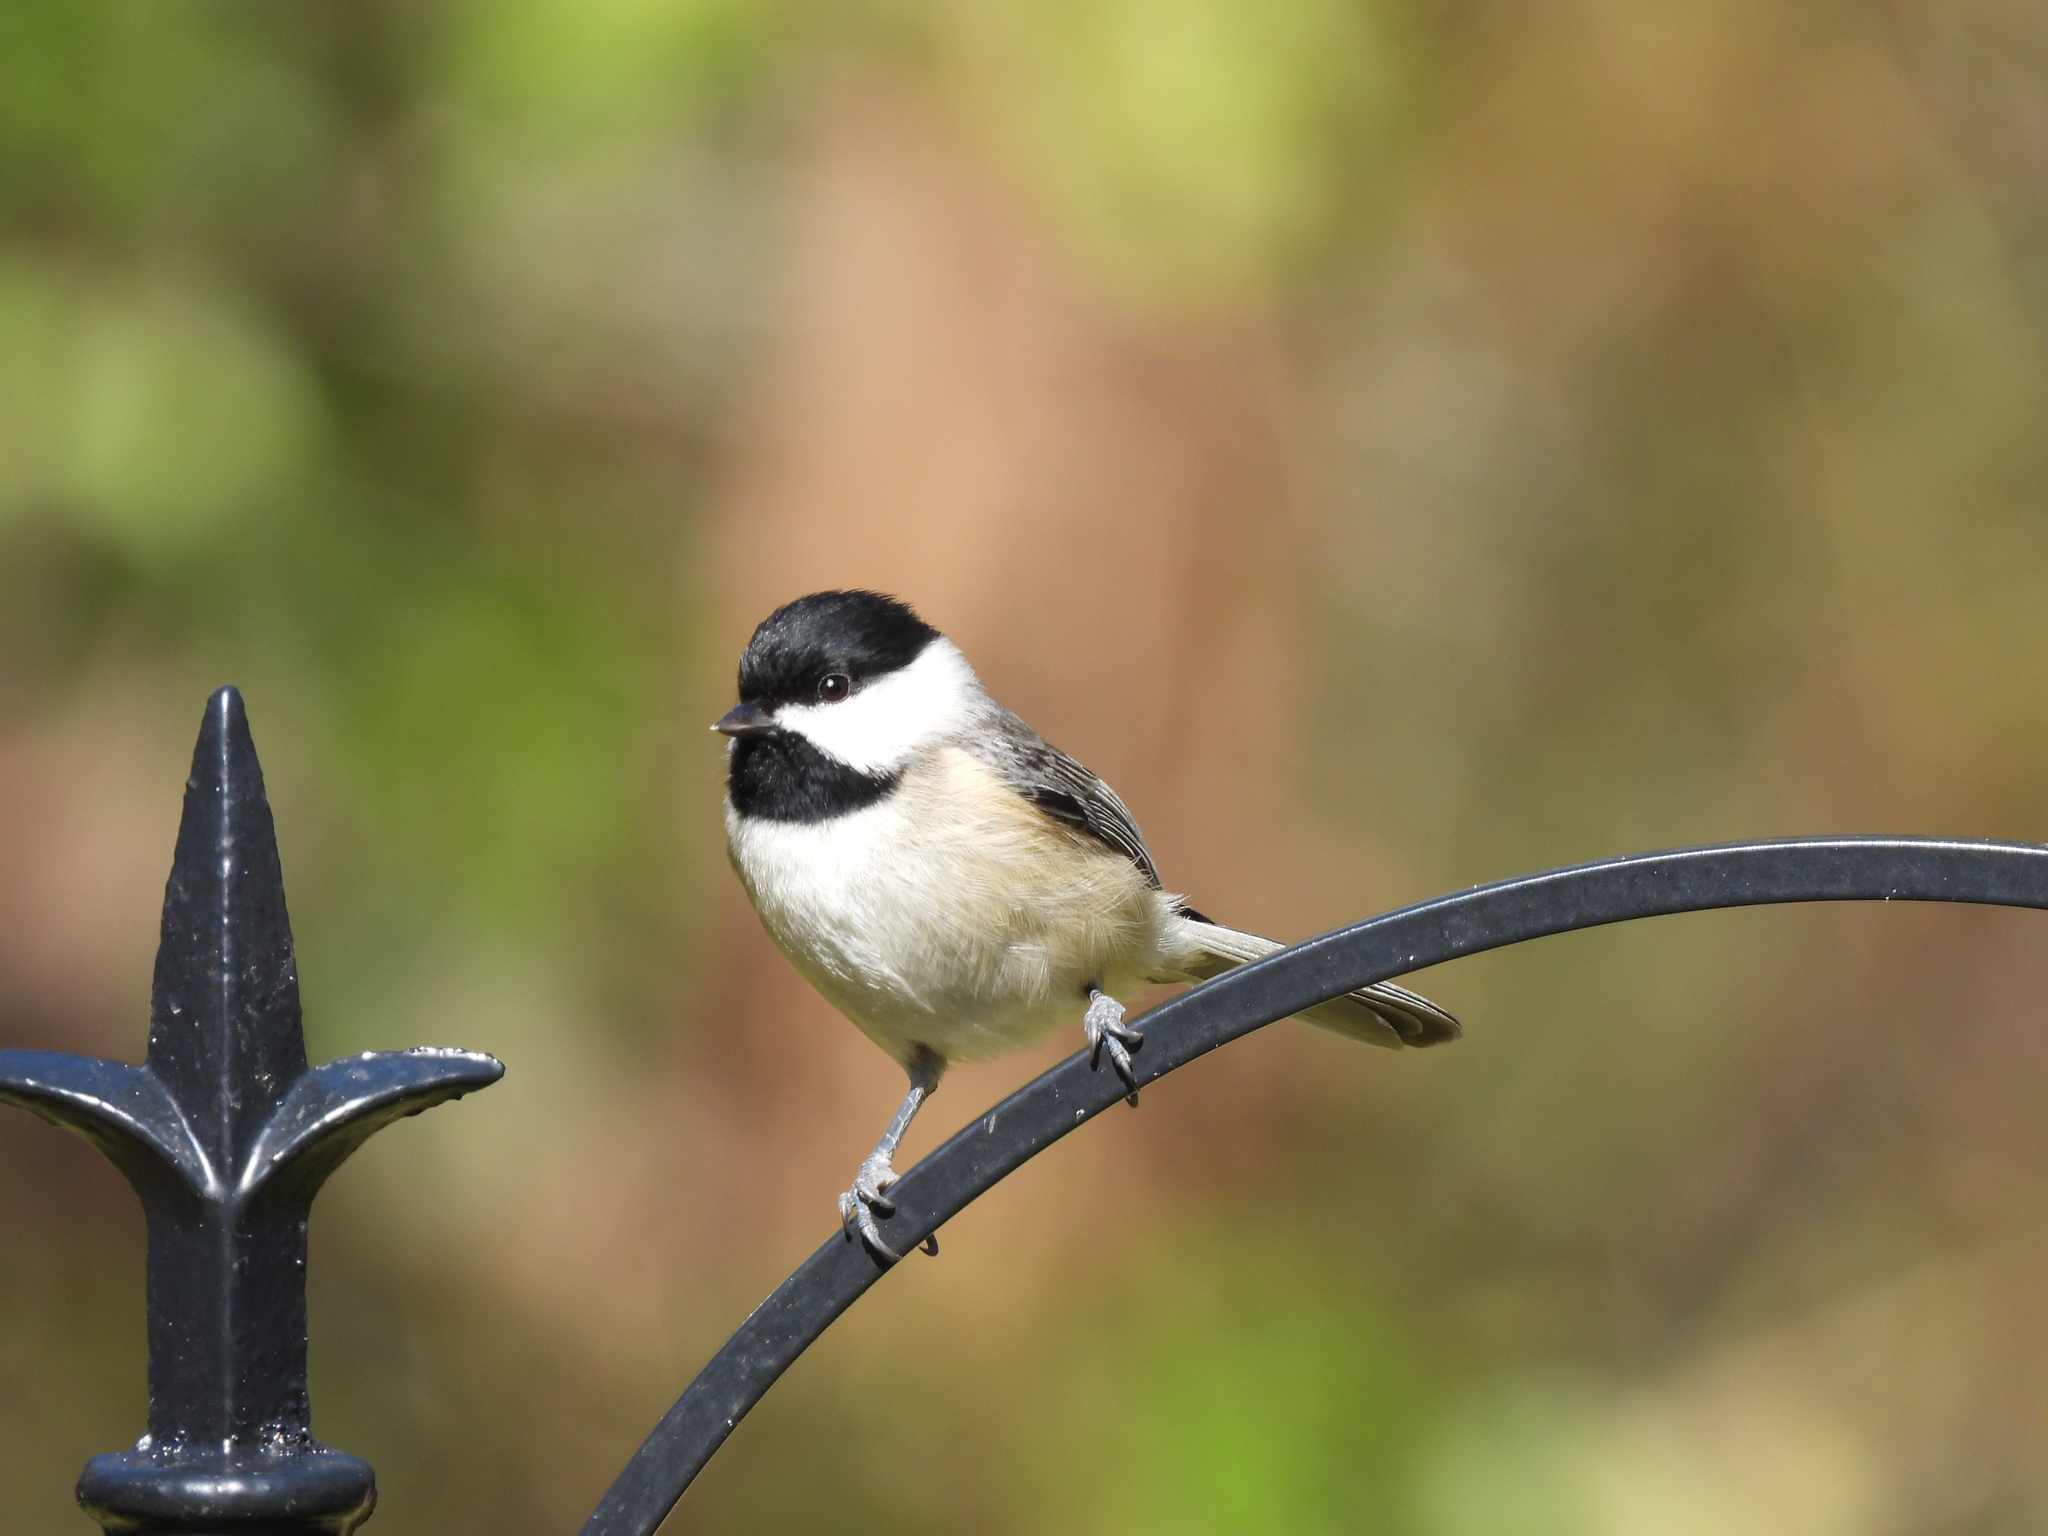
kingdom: Animalia
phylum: Chordata
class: Aves
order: Passeriformes
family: Paridae
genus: Poecile
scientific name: Poecile carolinensis
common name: Carolina chickadee
